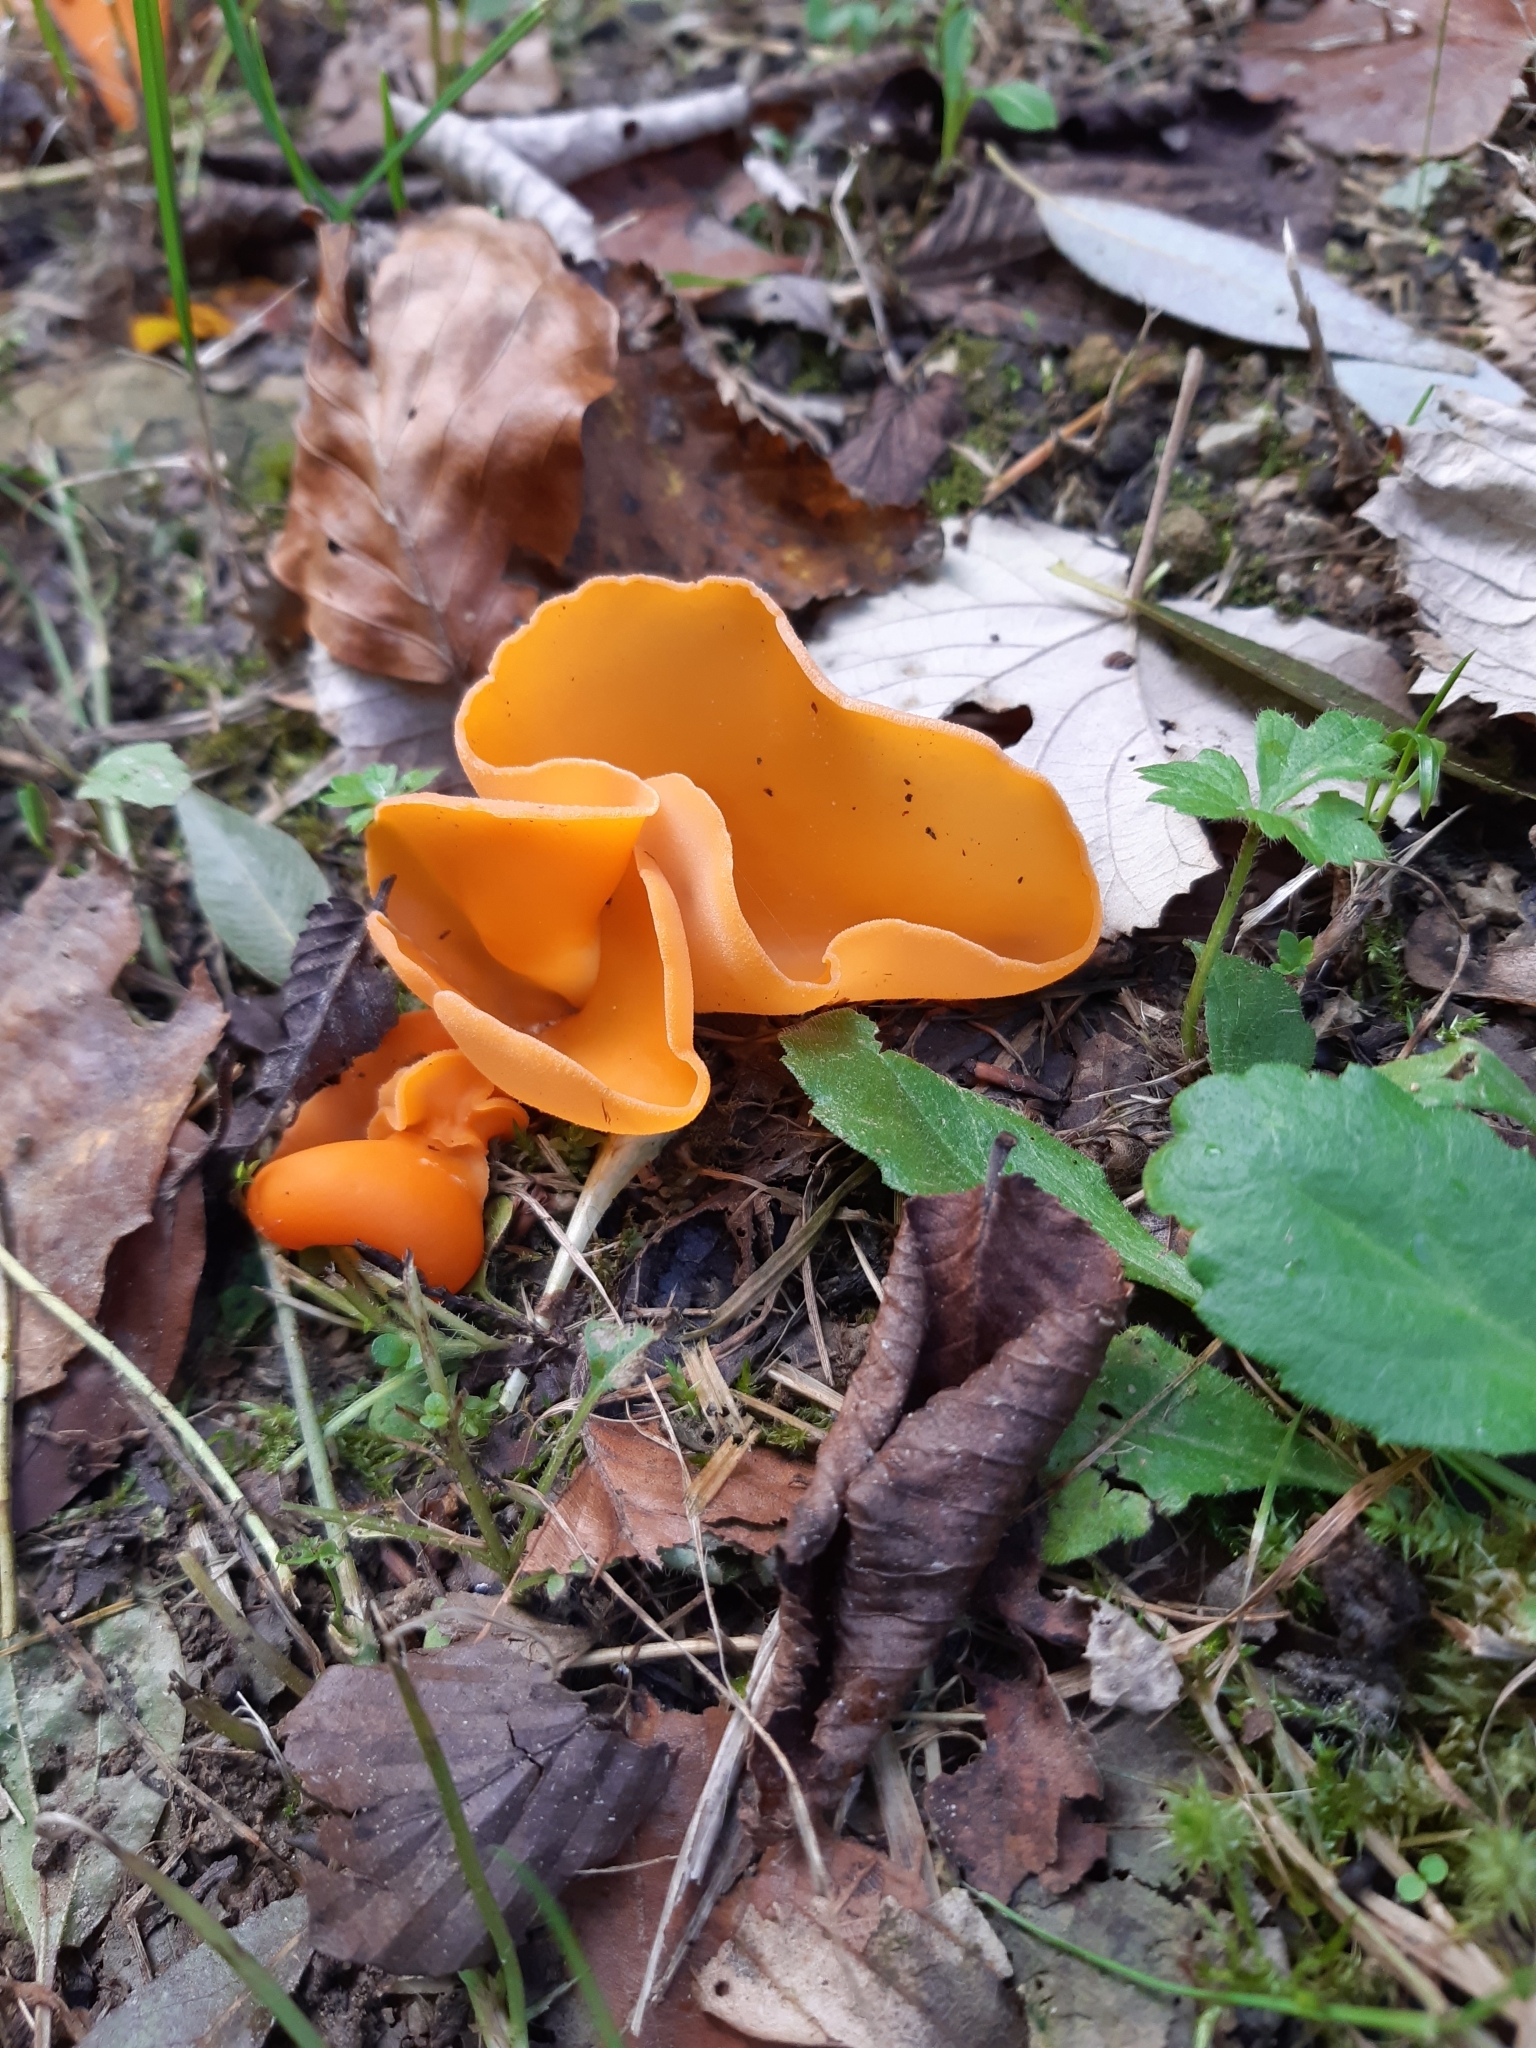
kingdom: Fungi
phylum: Ascomycota
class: Pezizomycetes
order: Pezizales
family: Pyronemataceae
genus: Aleuria
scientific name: Aleuria aurantia
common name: Orange peel fungus
